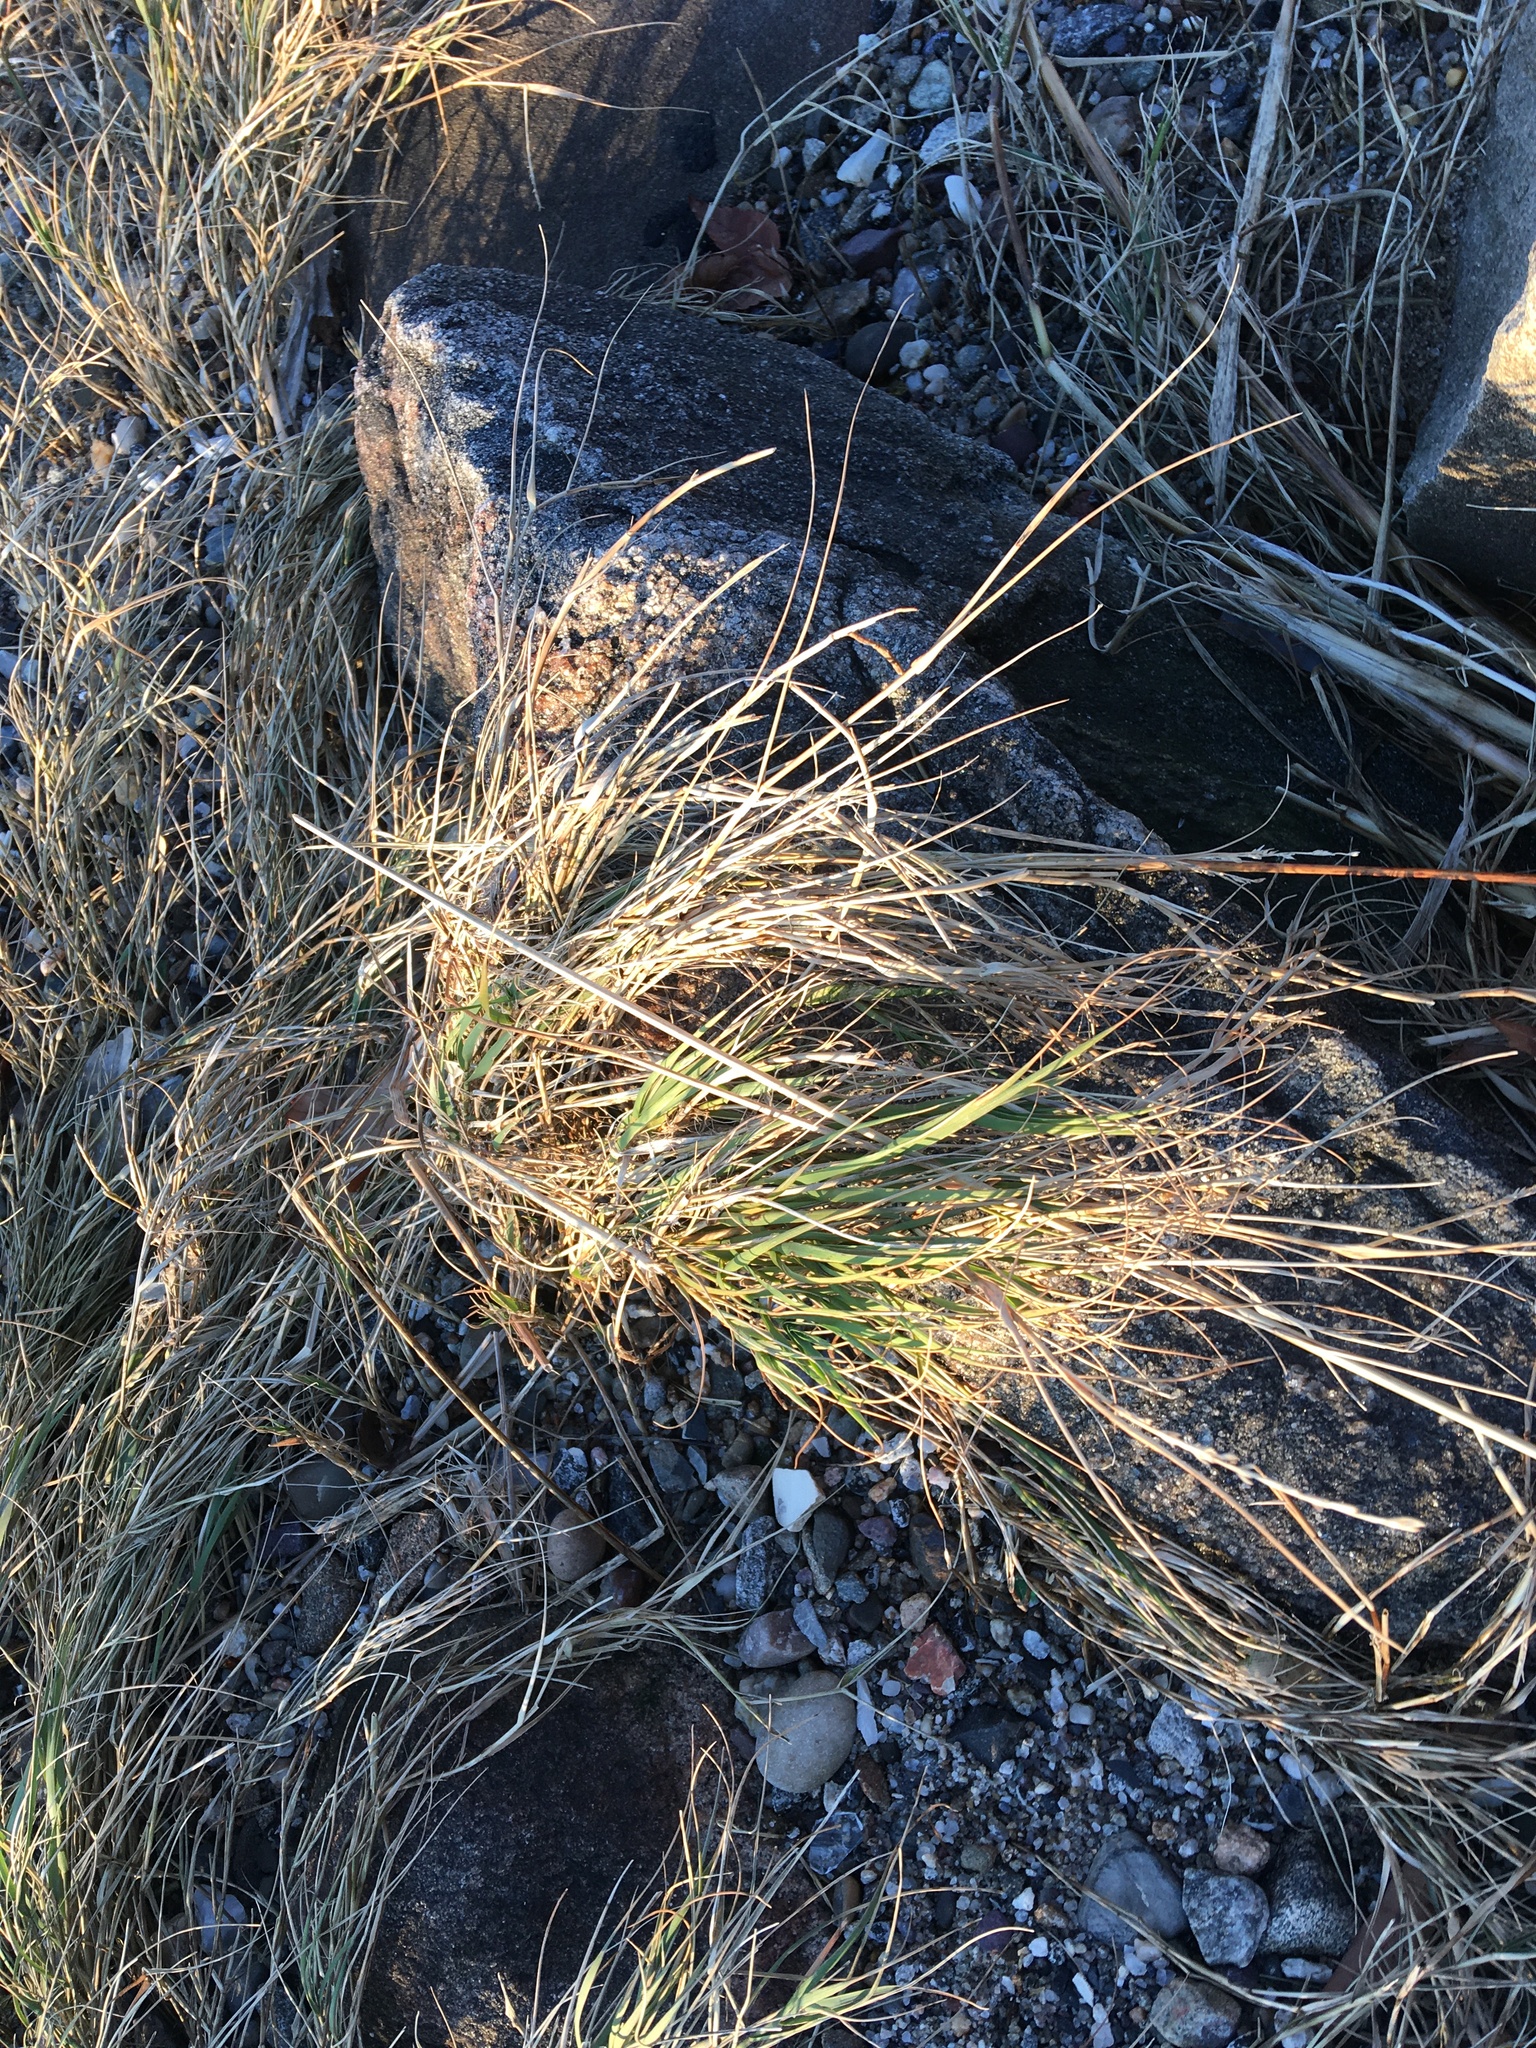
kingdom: Plantae
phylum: Tracheophyta
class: Liliopsida
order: Poales
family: Poaceae
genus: Distichlis
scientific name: Distichlis spicata
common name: Saltgrass
